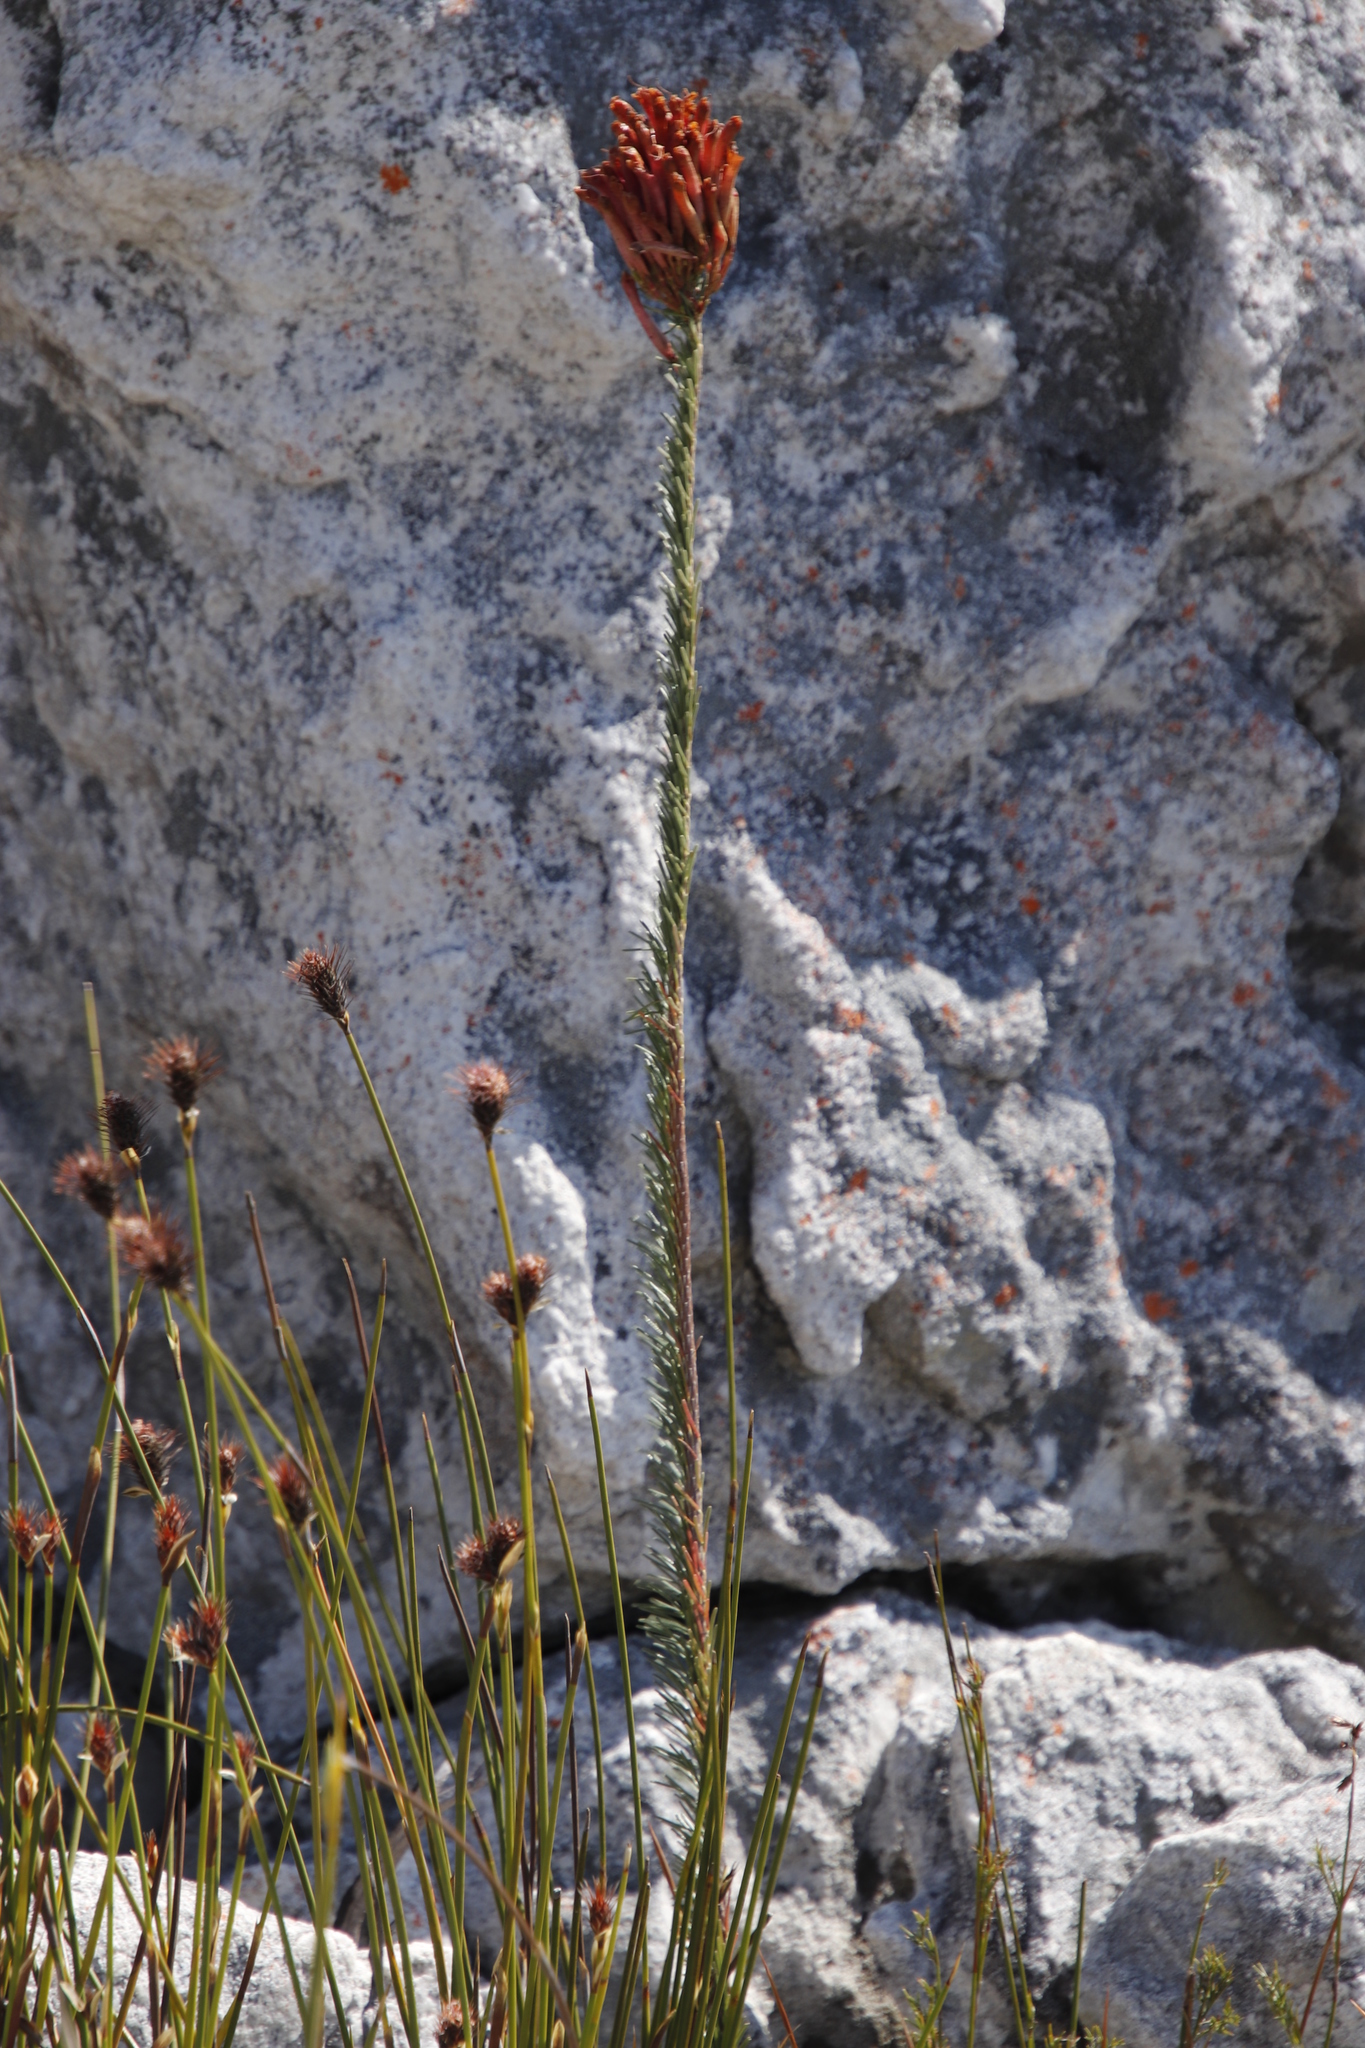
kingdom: Plantae
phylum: Tracheophyta
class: Magnoliopsida
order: Ericales
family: Ericaceae
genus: Erica
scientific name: Erica fascicularis
